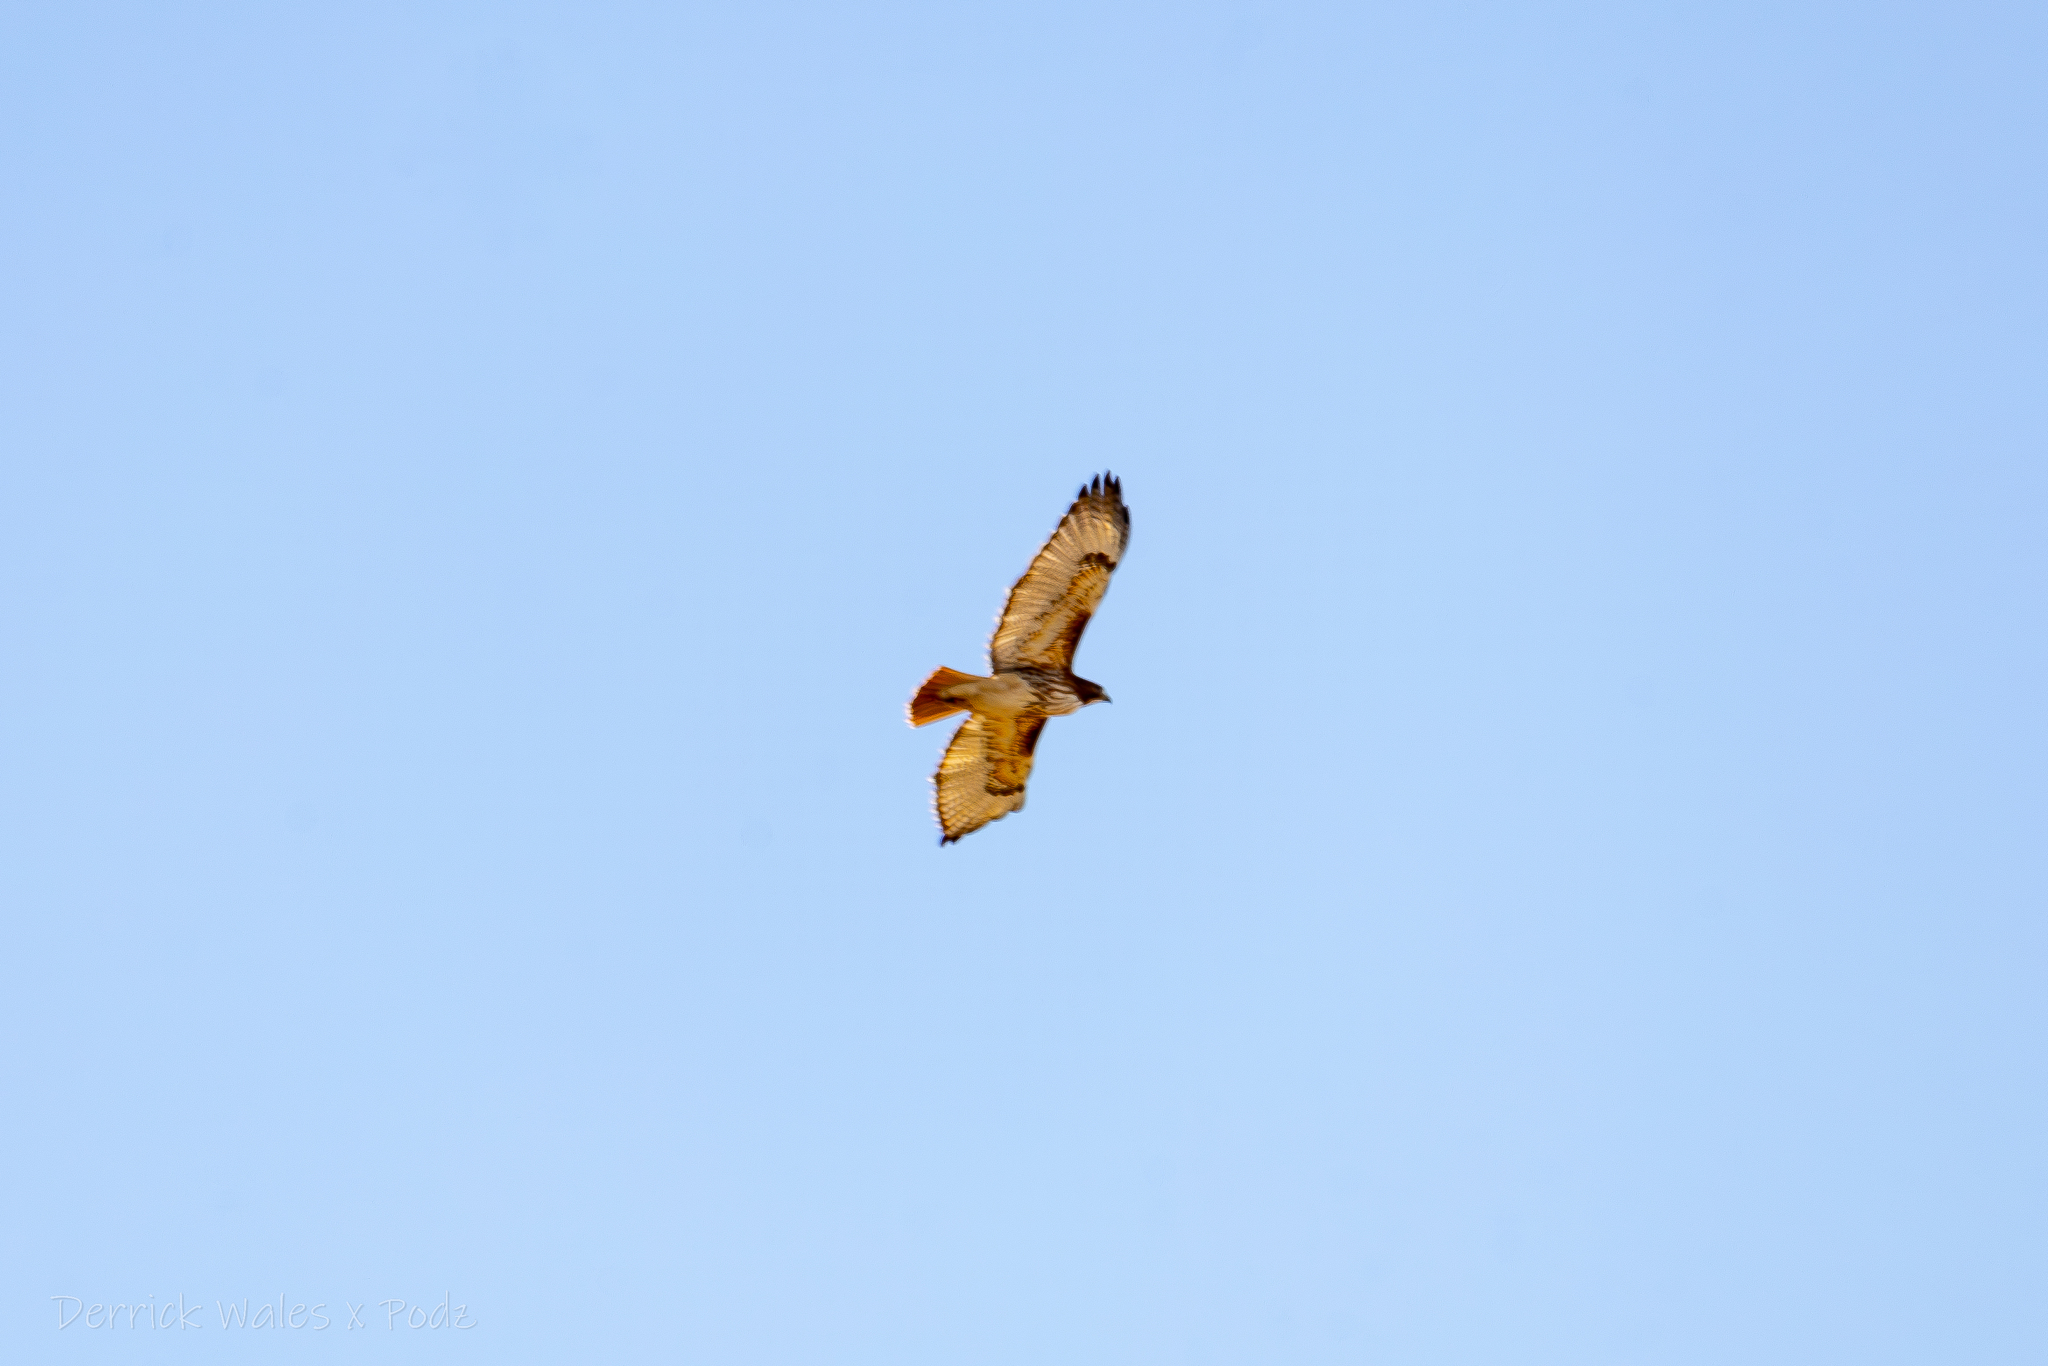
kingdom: Animalia
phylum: Chordata
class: Aves
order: Accipitriformes
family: Accipitridae
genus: Buteo
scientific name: Buteo jamaicensis
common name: Red-tailed hawk
